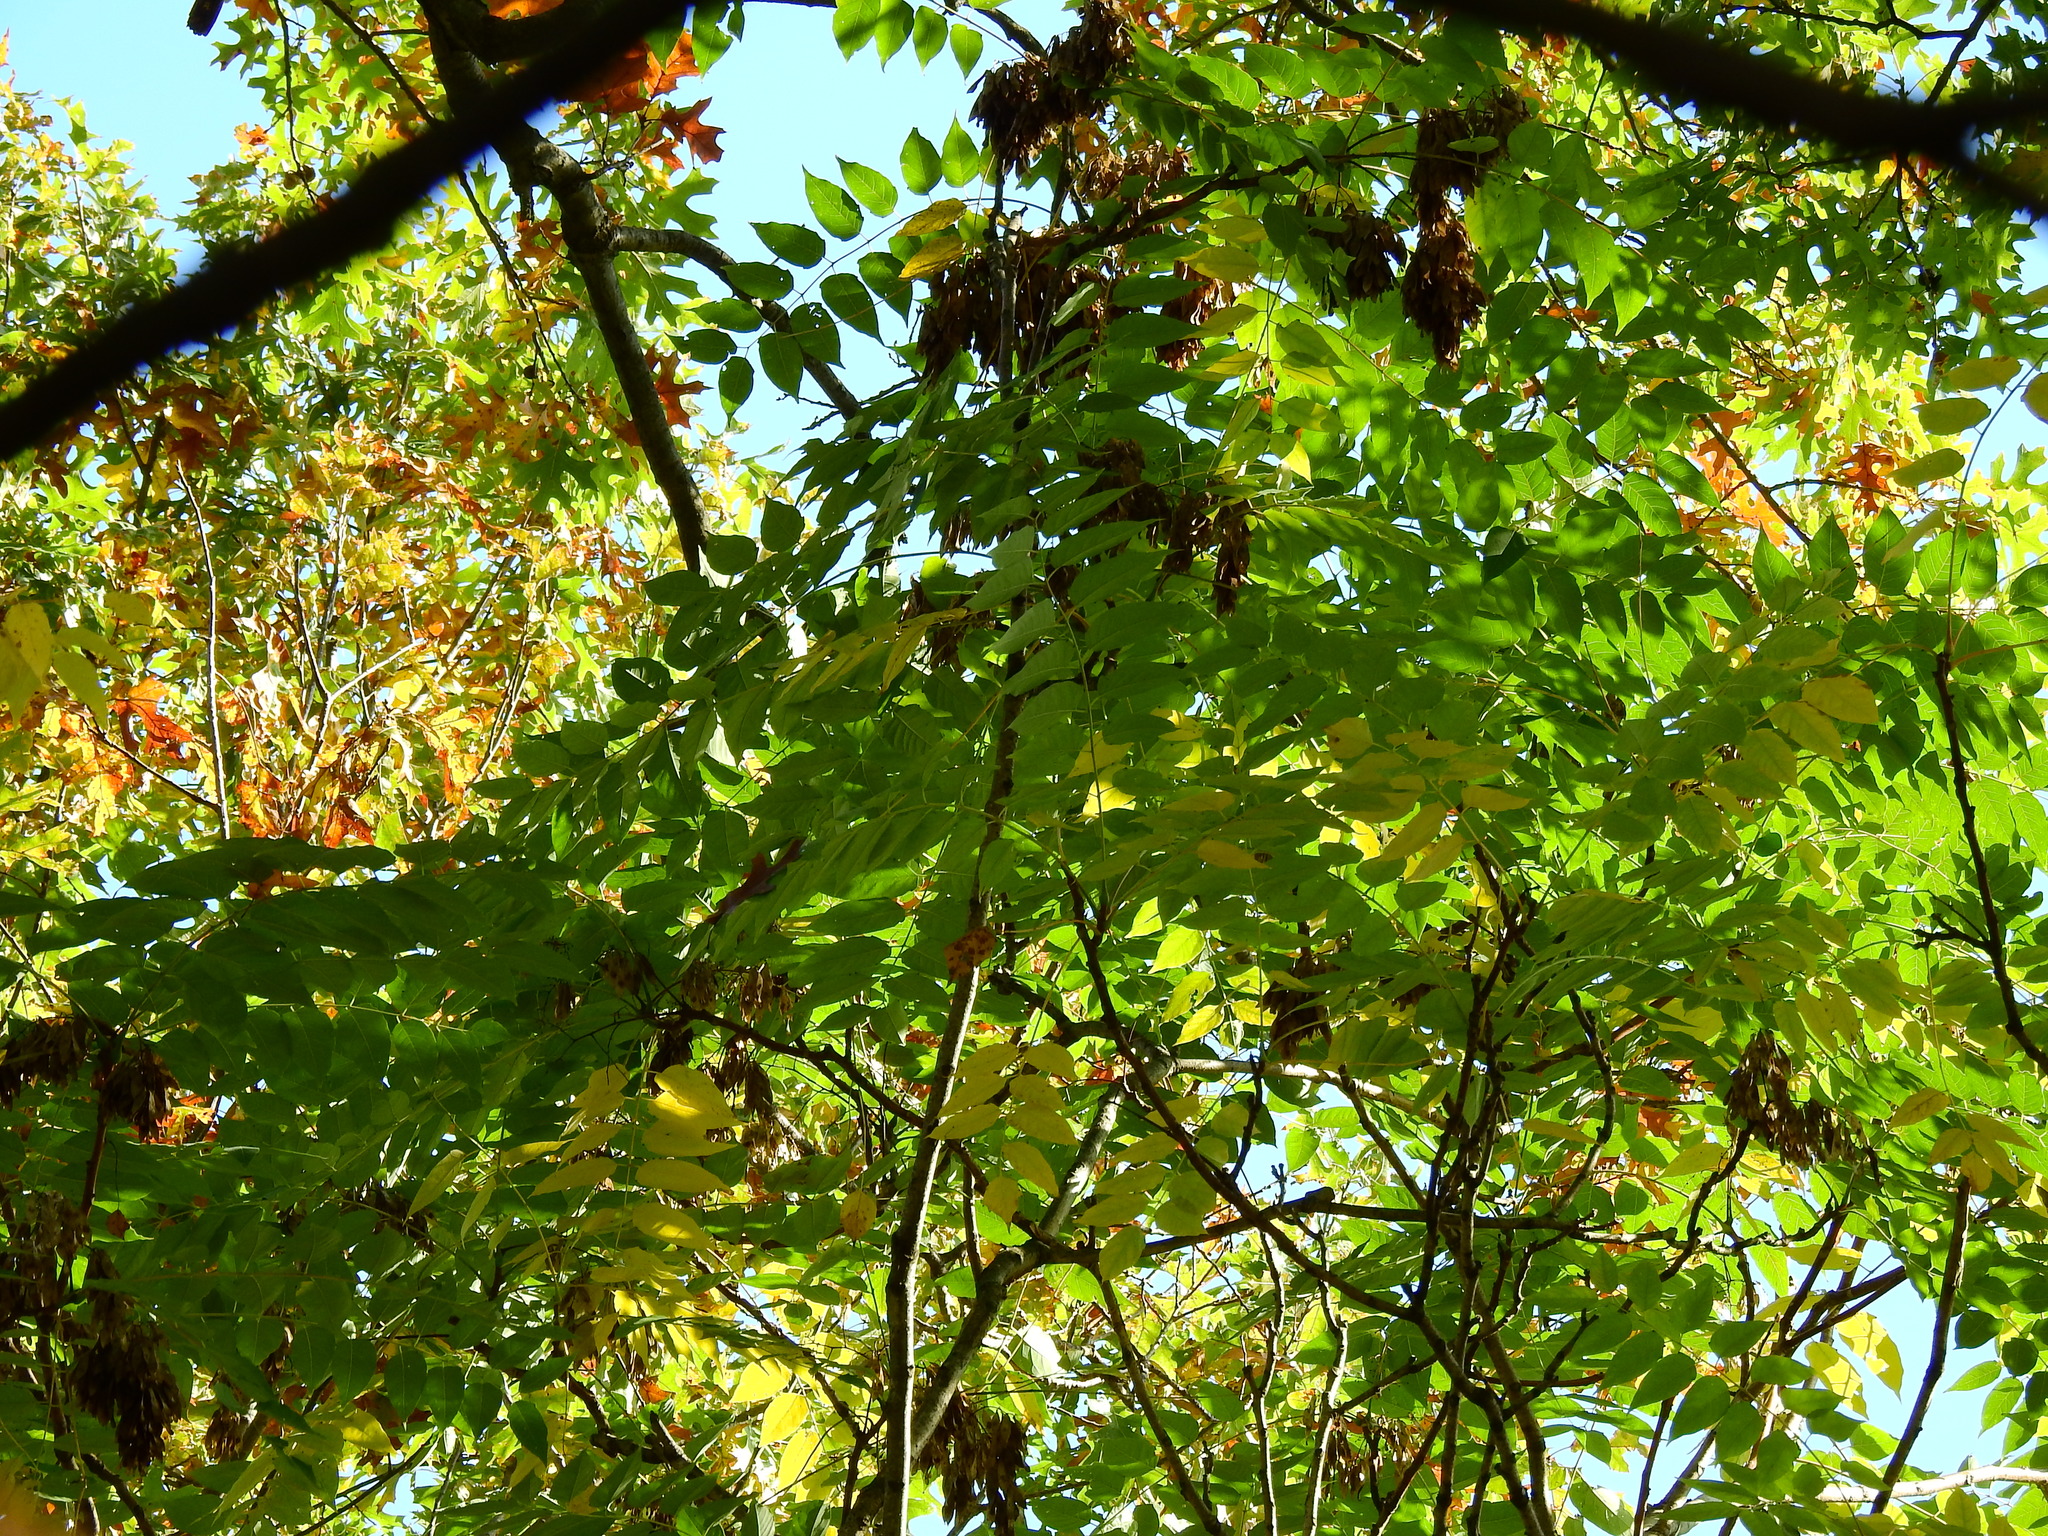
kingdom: Plantae
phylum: Tracheophyta
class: Magnoliopsida
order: Sapindales
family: Simaroubaceae
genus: Ailanthus
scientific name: Ailanthus altissima
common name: Tree-of-heaven
